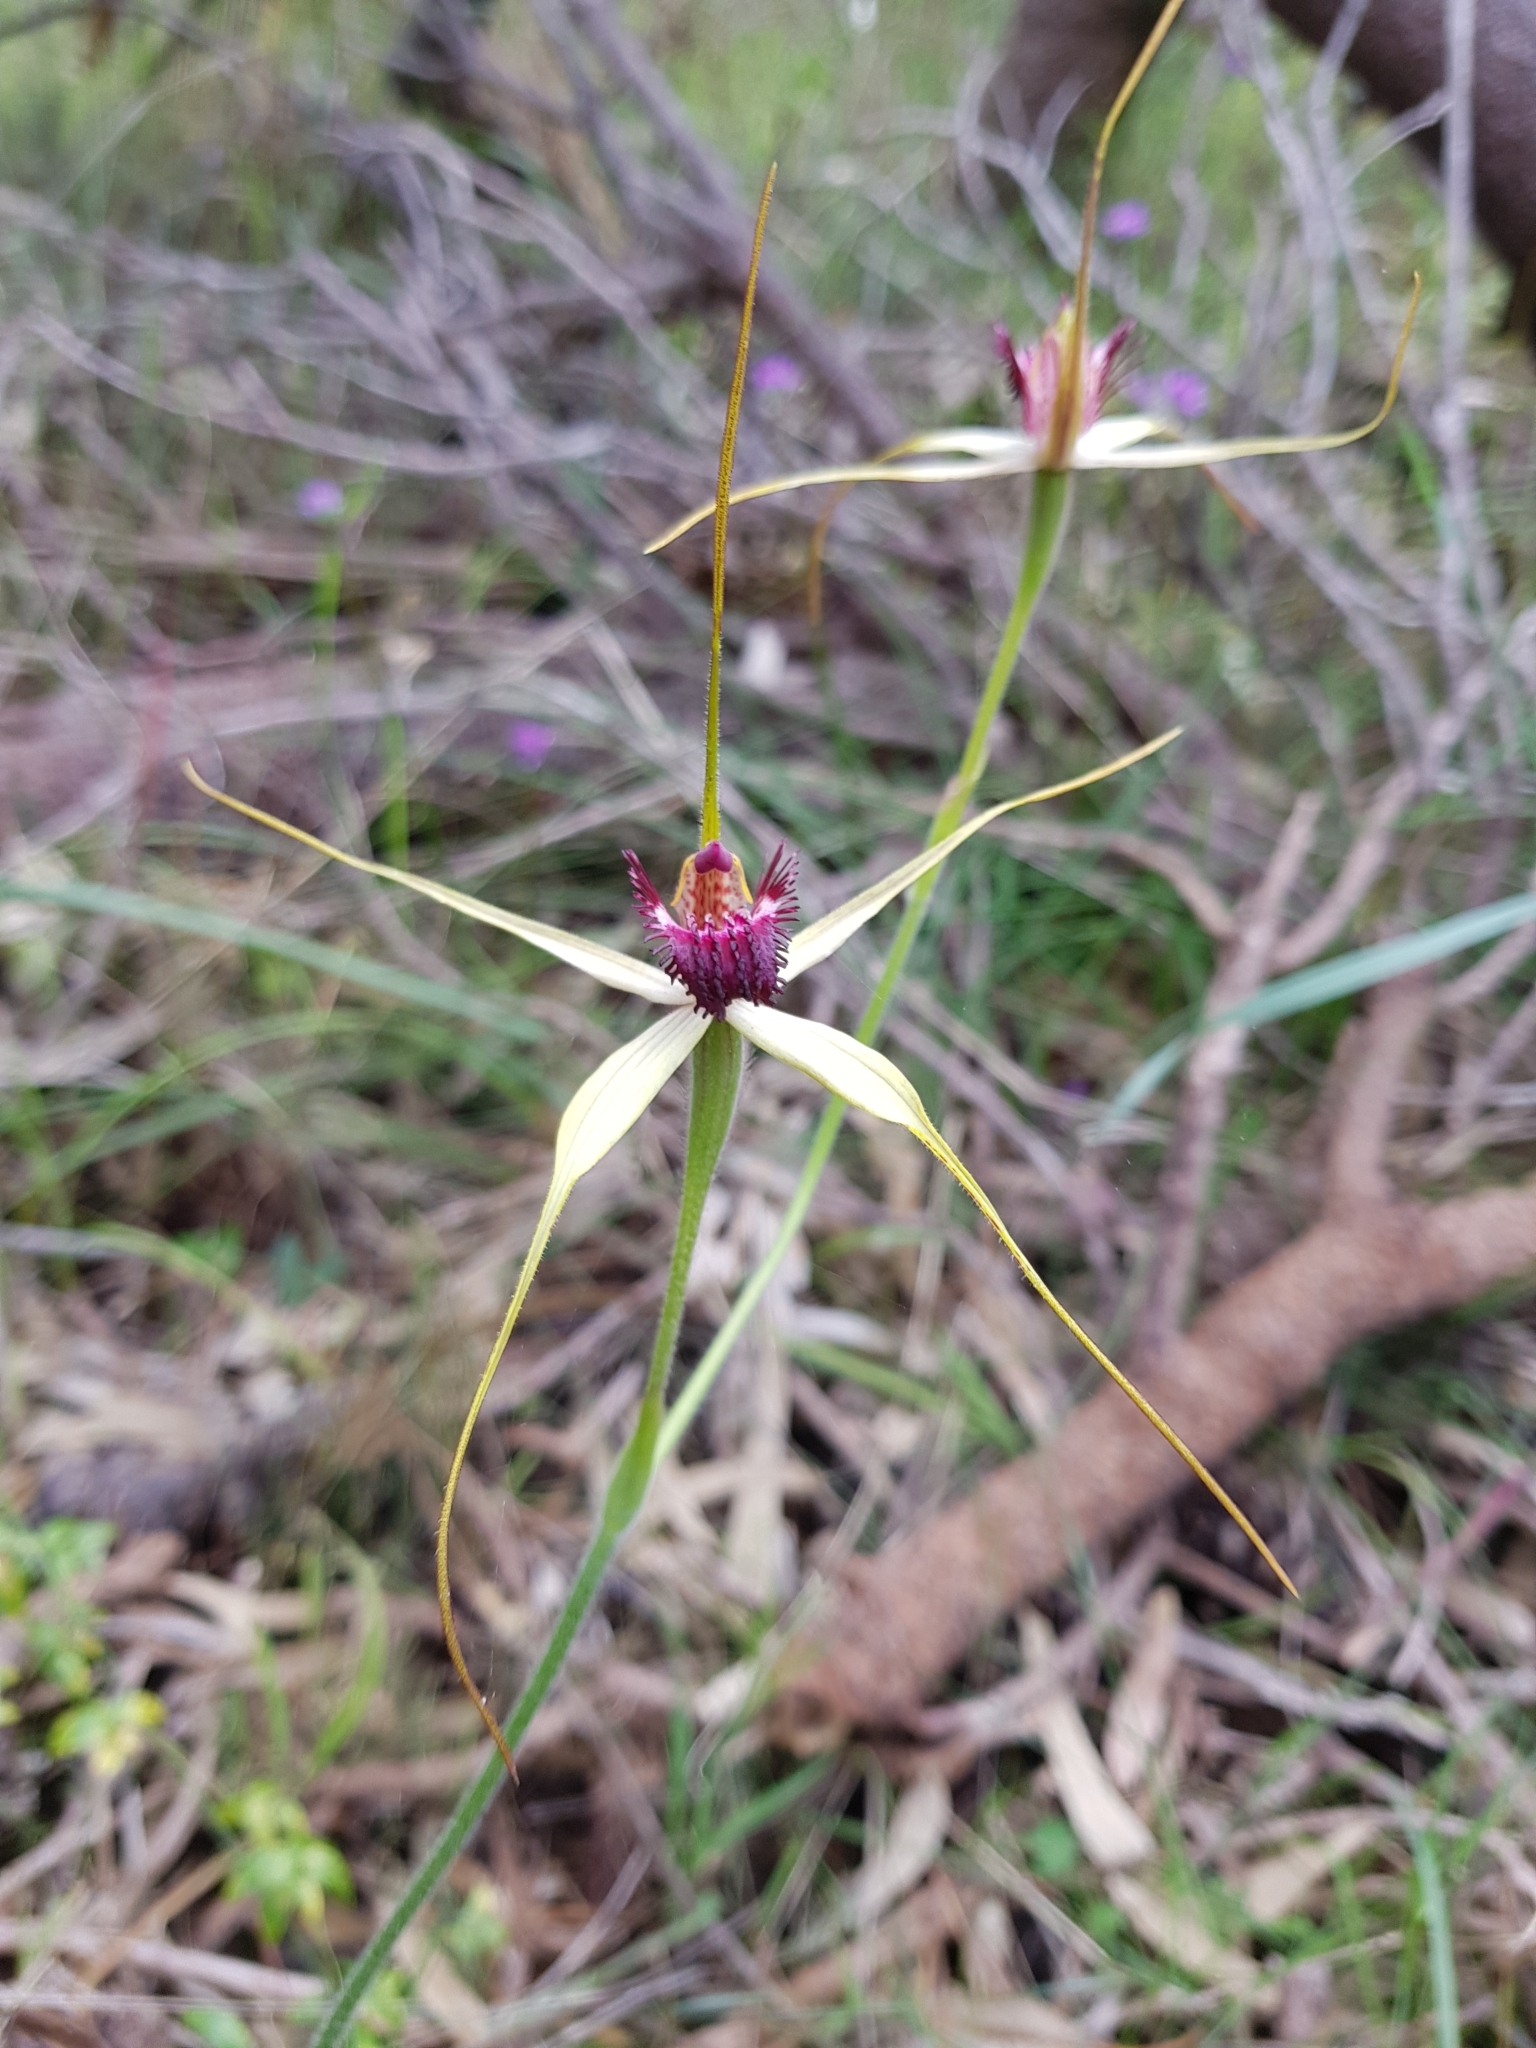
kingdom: Plantae
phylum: Tracheophyta
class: Liliopsida
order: Asparagales
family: Orchidaceae
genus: Caladenia
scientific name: Caladenia arenicola
